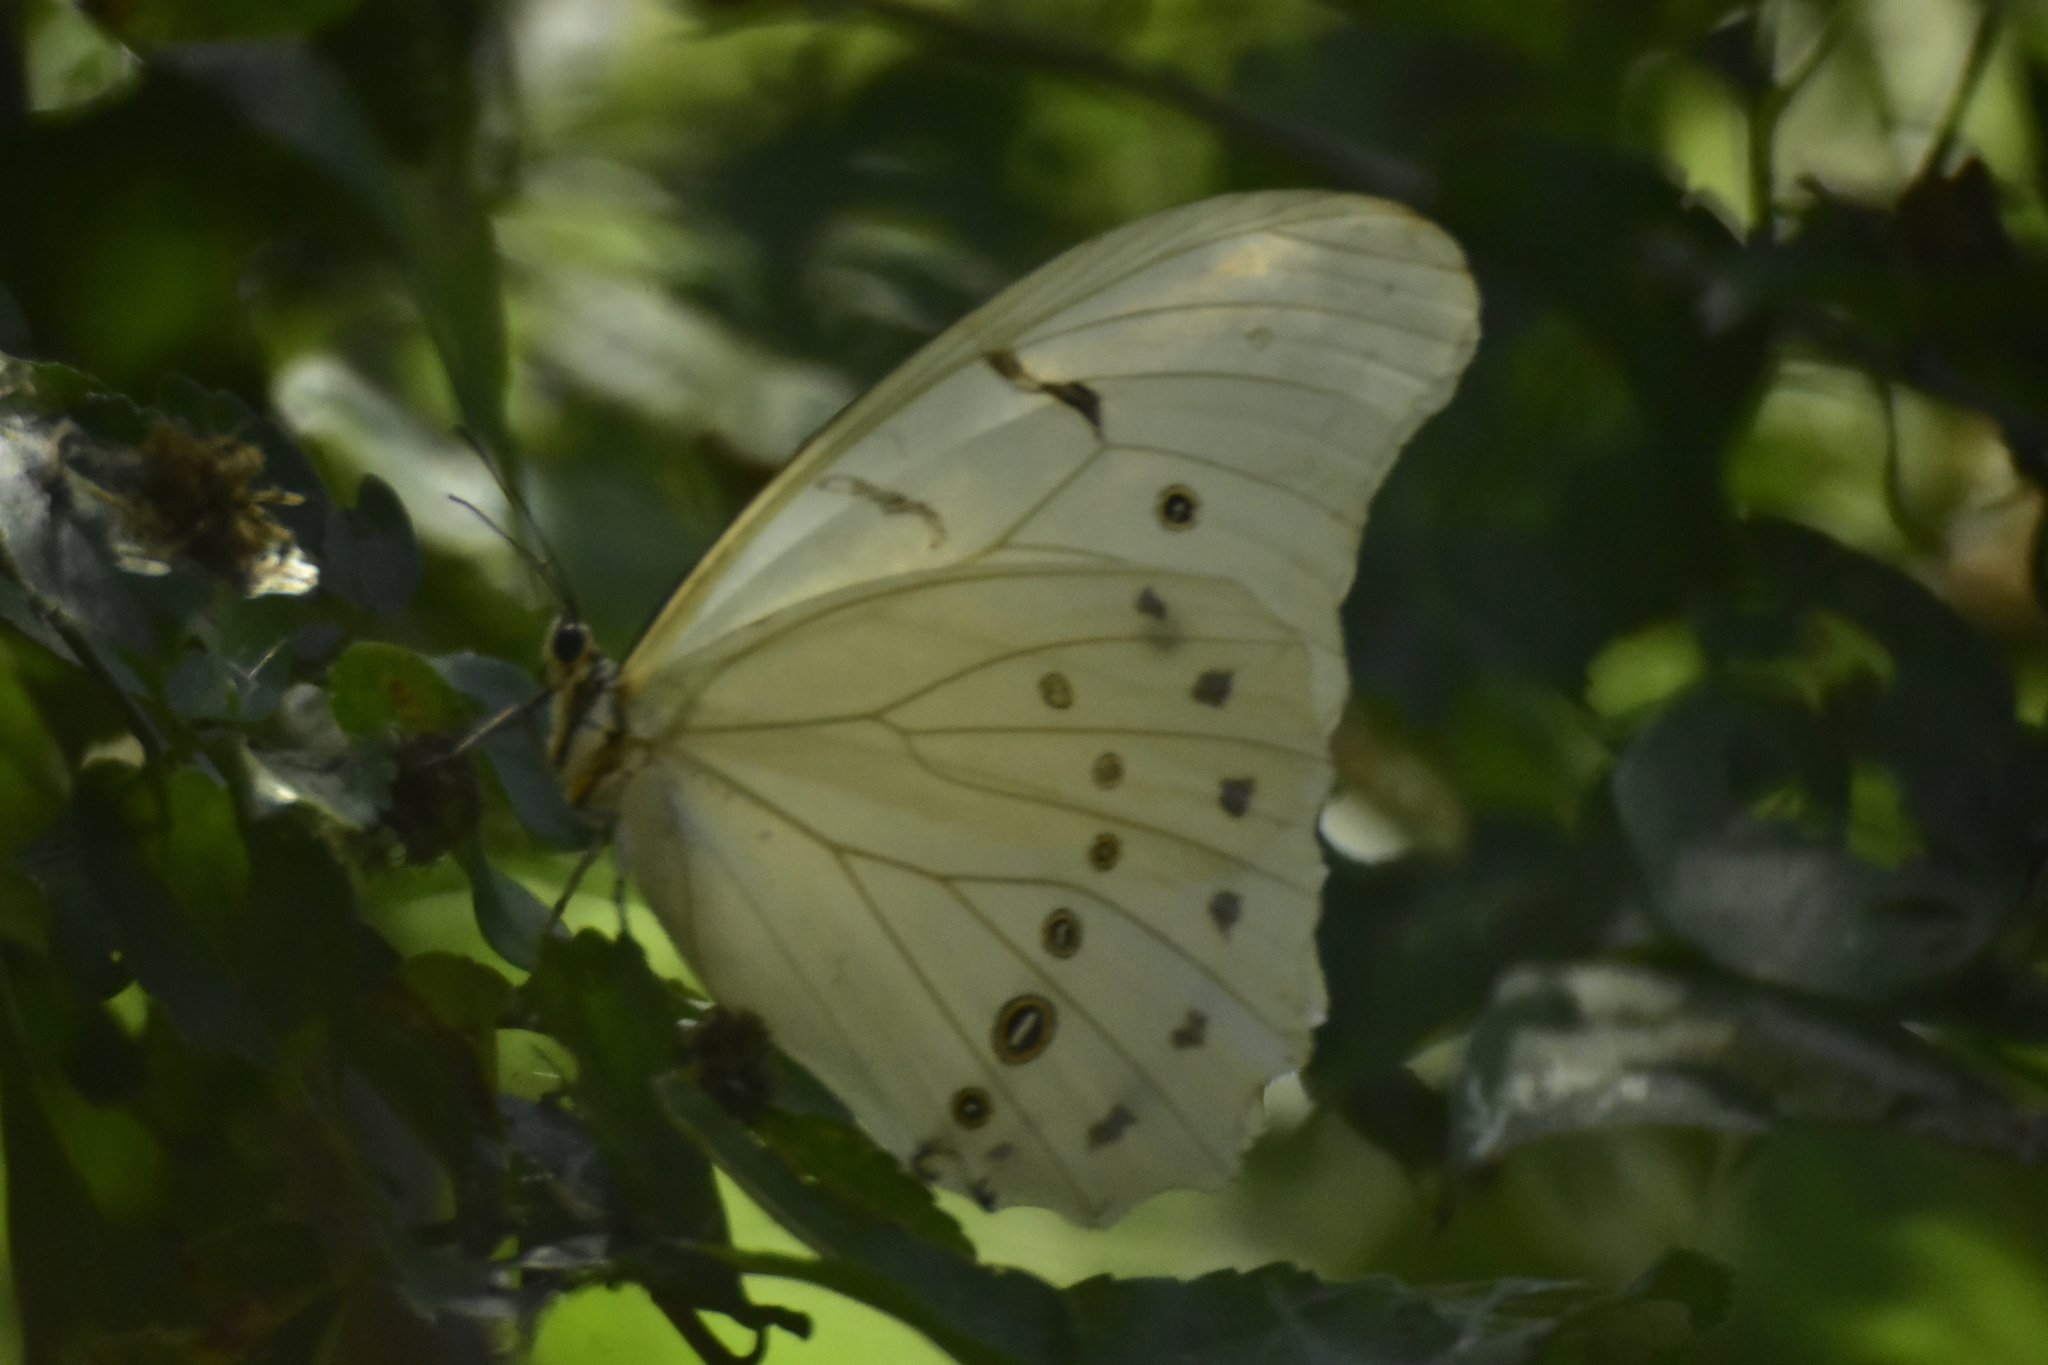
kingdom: Animalia
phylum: Arthropoda
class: Insecta
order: Lepidoptera
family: Nymphalidae
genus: Morpho
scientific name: Morpho polyphemus
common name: White morpho
